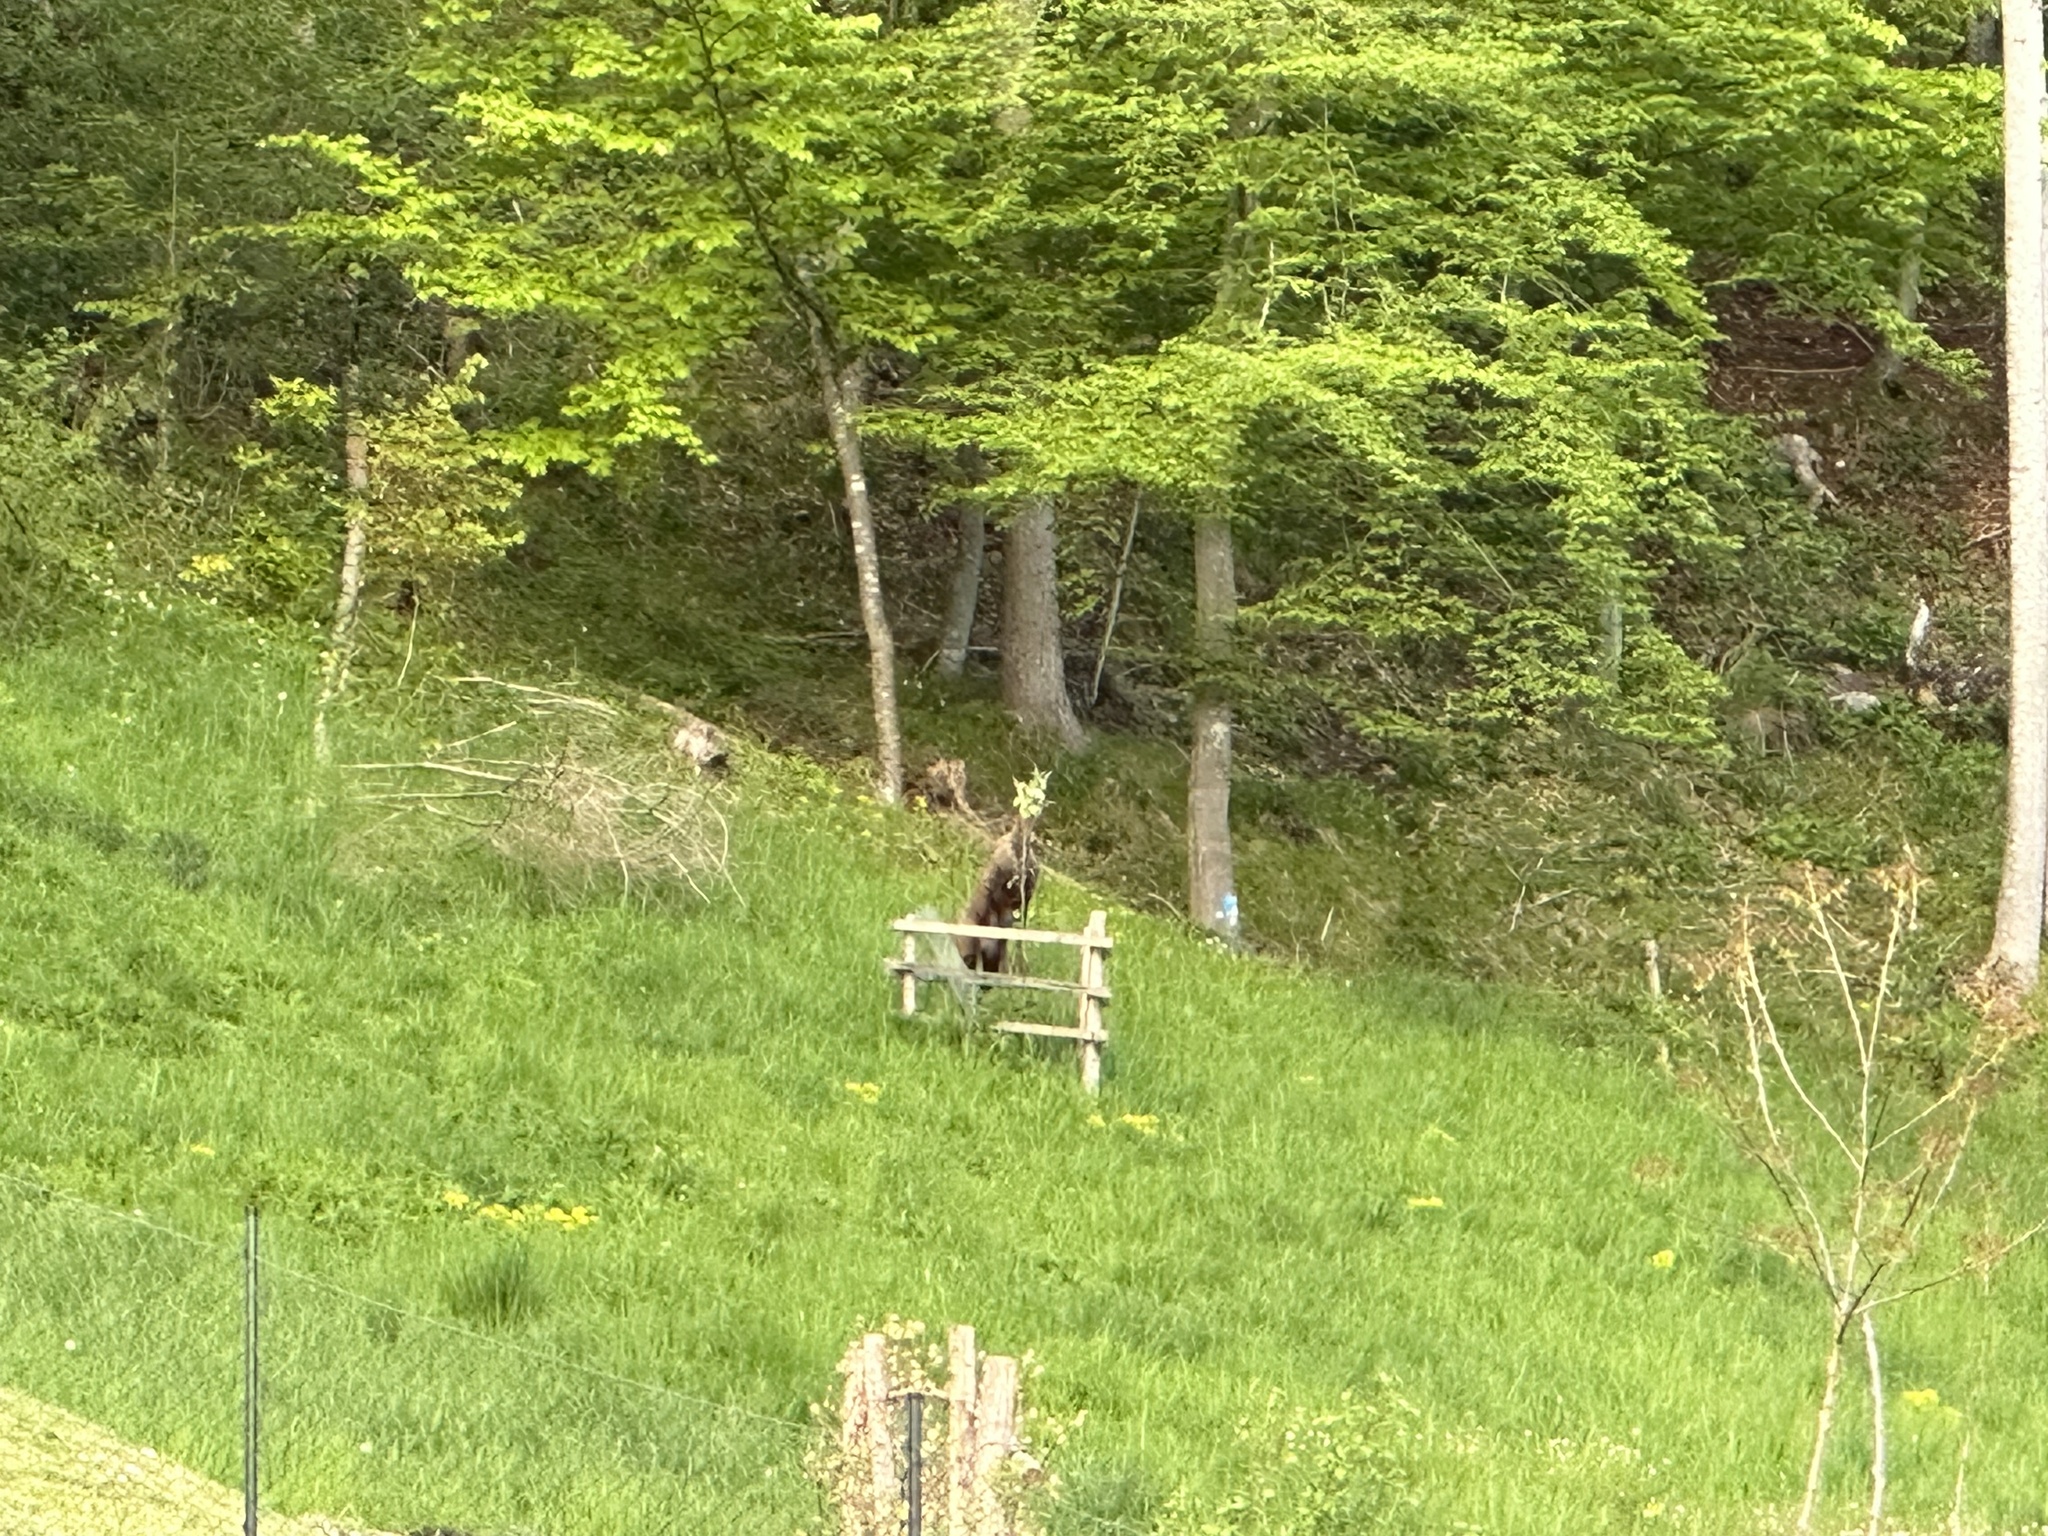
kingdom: Animalia
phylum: Chordata
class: Mammalia
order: Artiodactyla
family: Bovidae
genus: Rupicapra
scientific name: Rupicapra rupicapra
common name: Chamois
